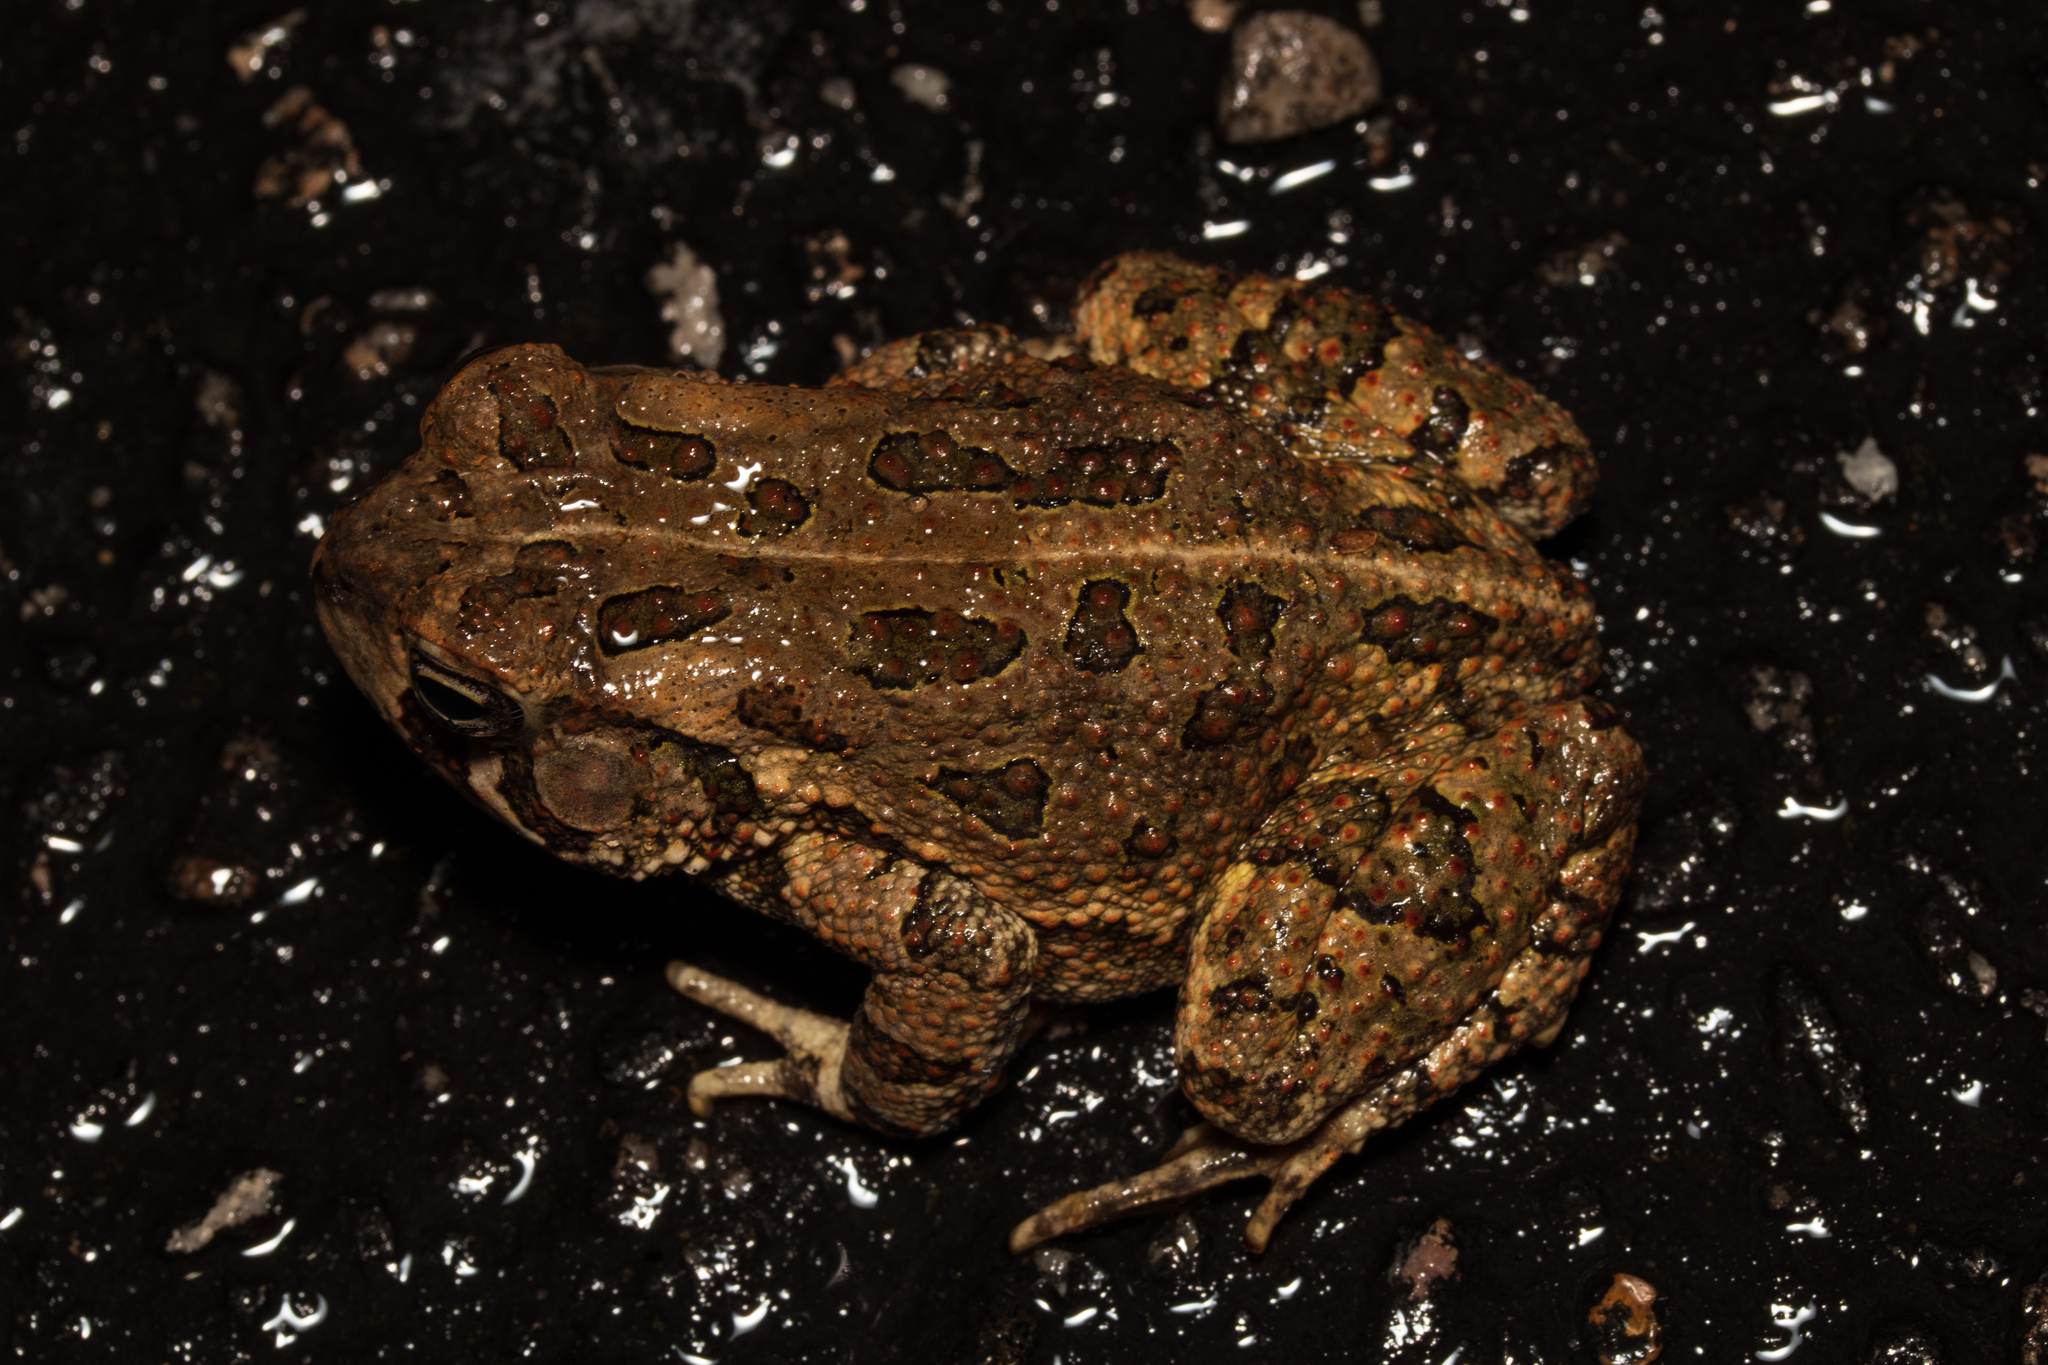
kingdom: Animalia
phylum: Chordata
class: Amphibia
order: Anura
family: Bufonidae
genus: Anaxyrus
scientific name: Anaxyrus fowleri
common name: Fowler's toad
